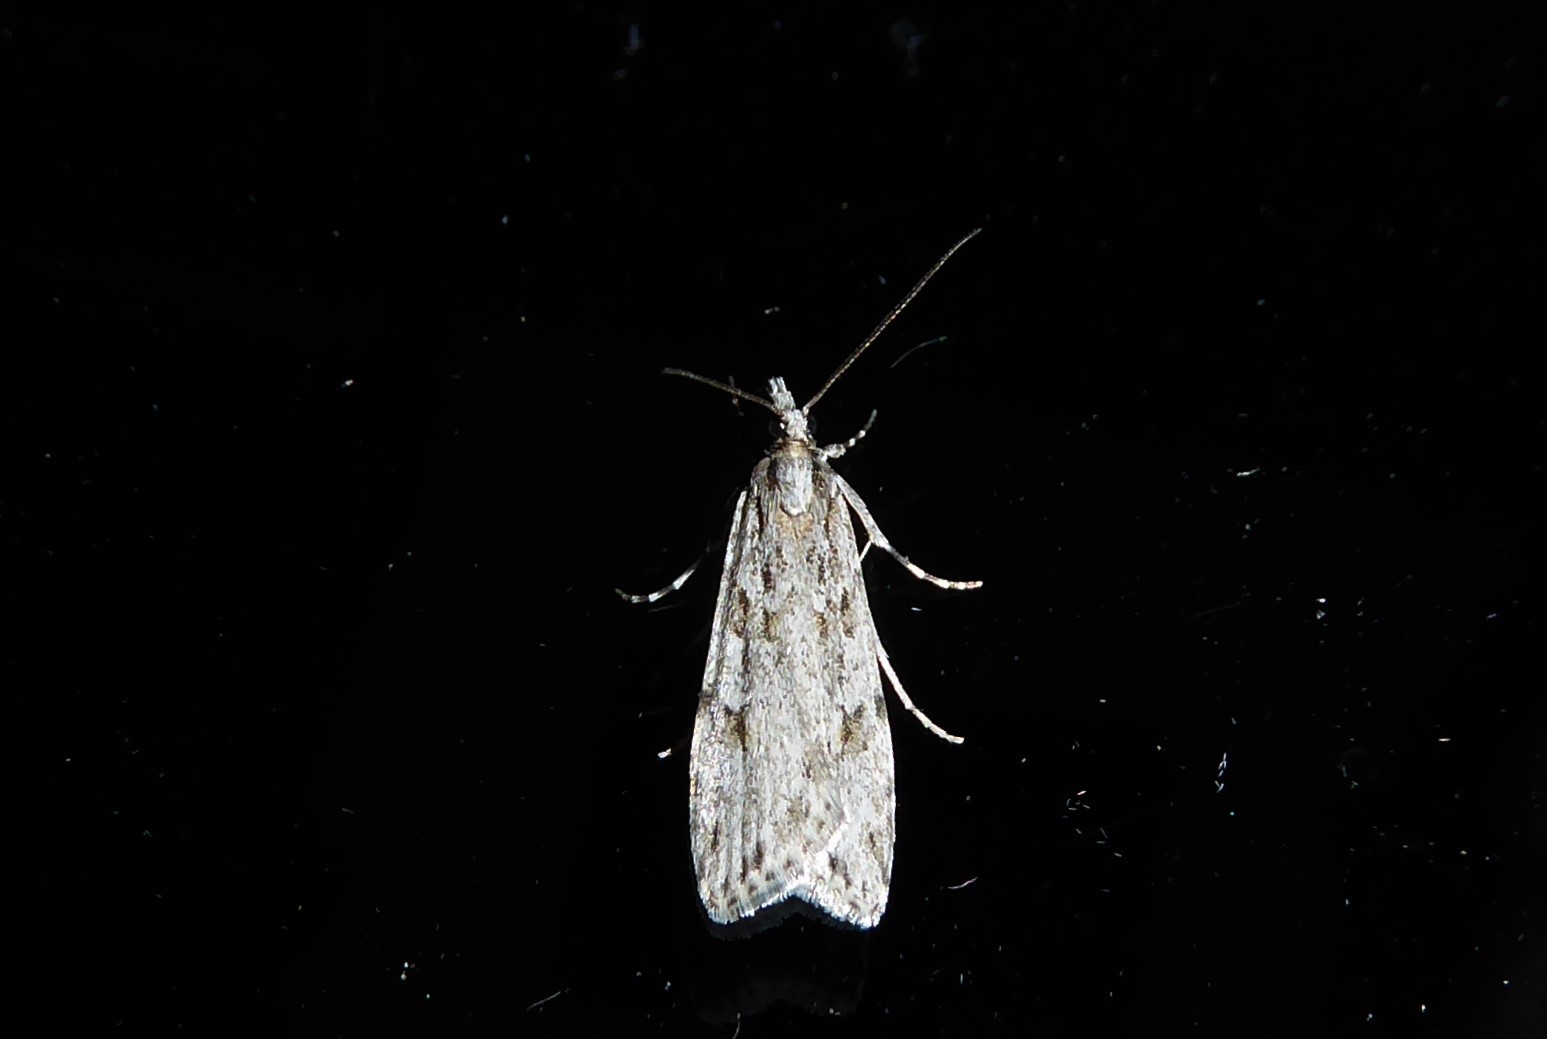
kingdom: Animalia
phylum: Arthropoda
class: Insecta
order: Lepidoptera
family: Crambidae
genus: Scoparia
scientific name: Scoparia halopis
